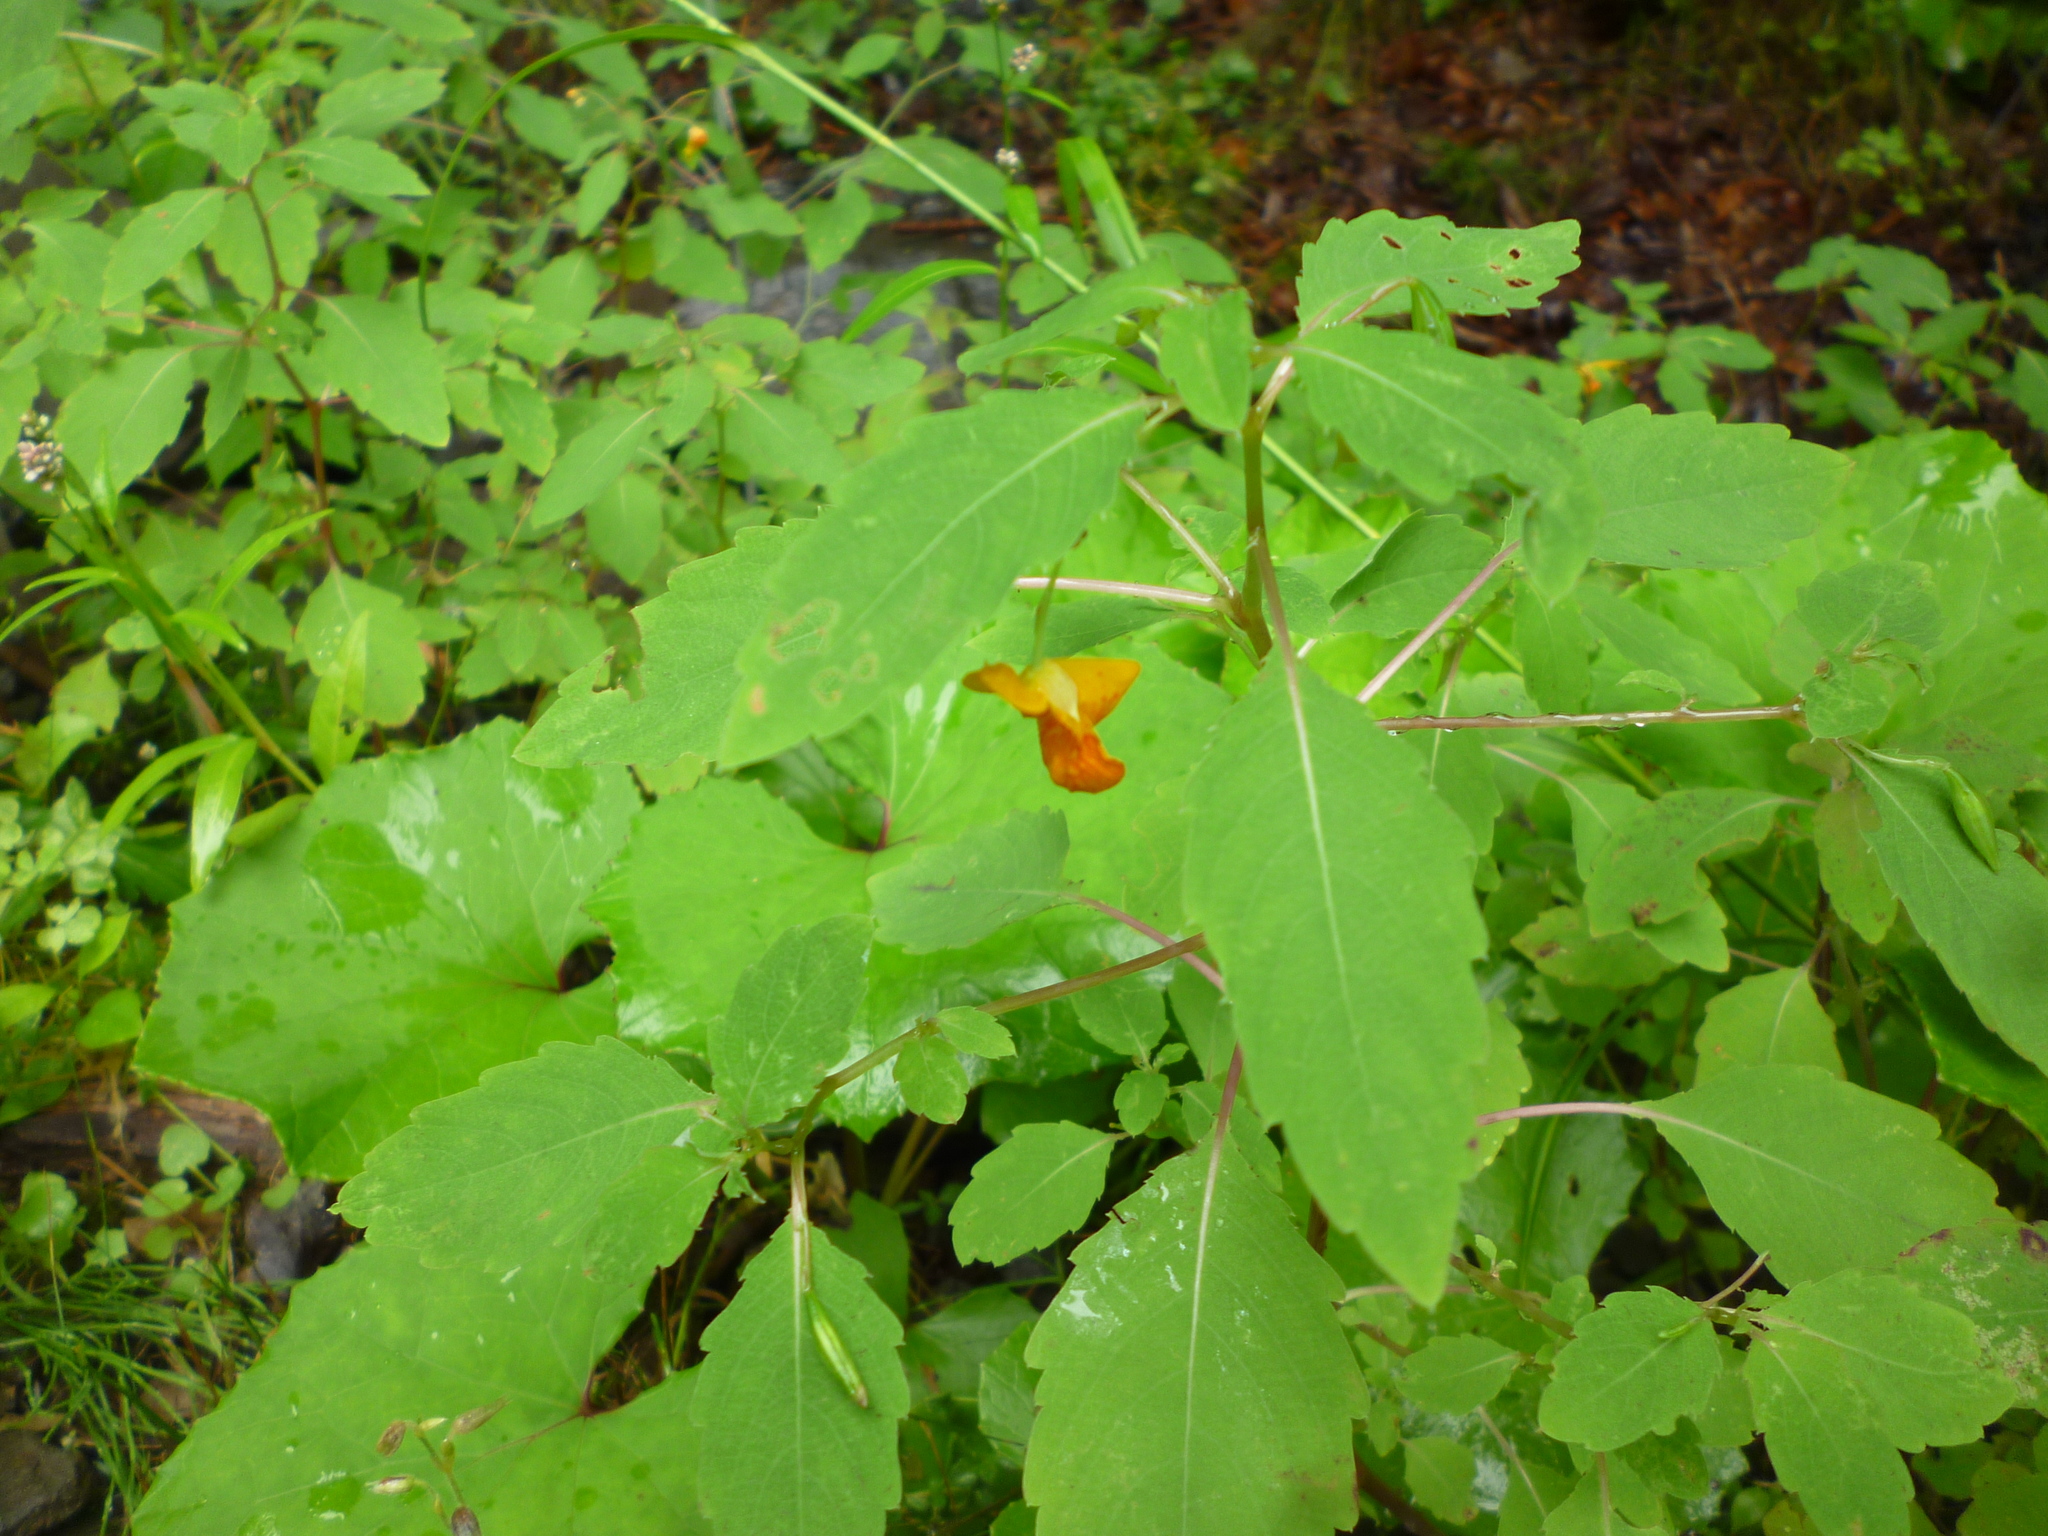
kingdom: Plantae
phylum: Tracheophyta
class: Magnoliopsida
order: Ericales
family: Balsaminaceae
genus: Impatiens
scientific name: Impatiens capensis
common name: Orange balsam
